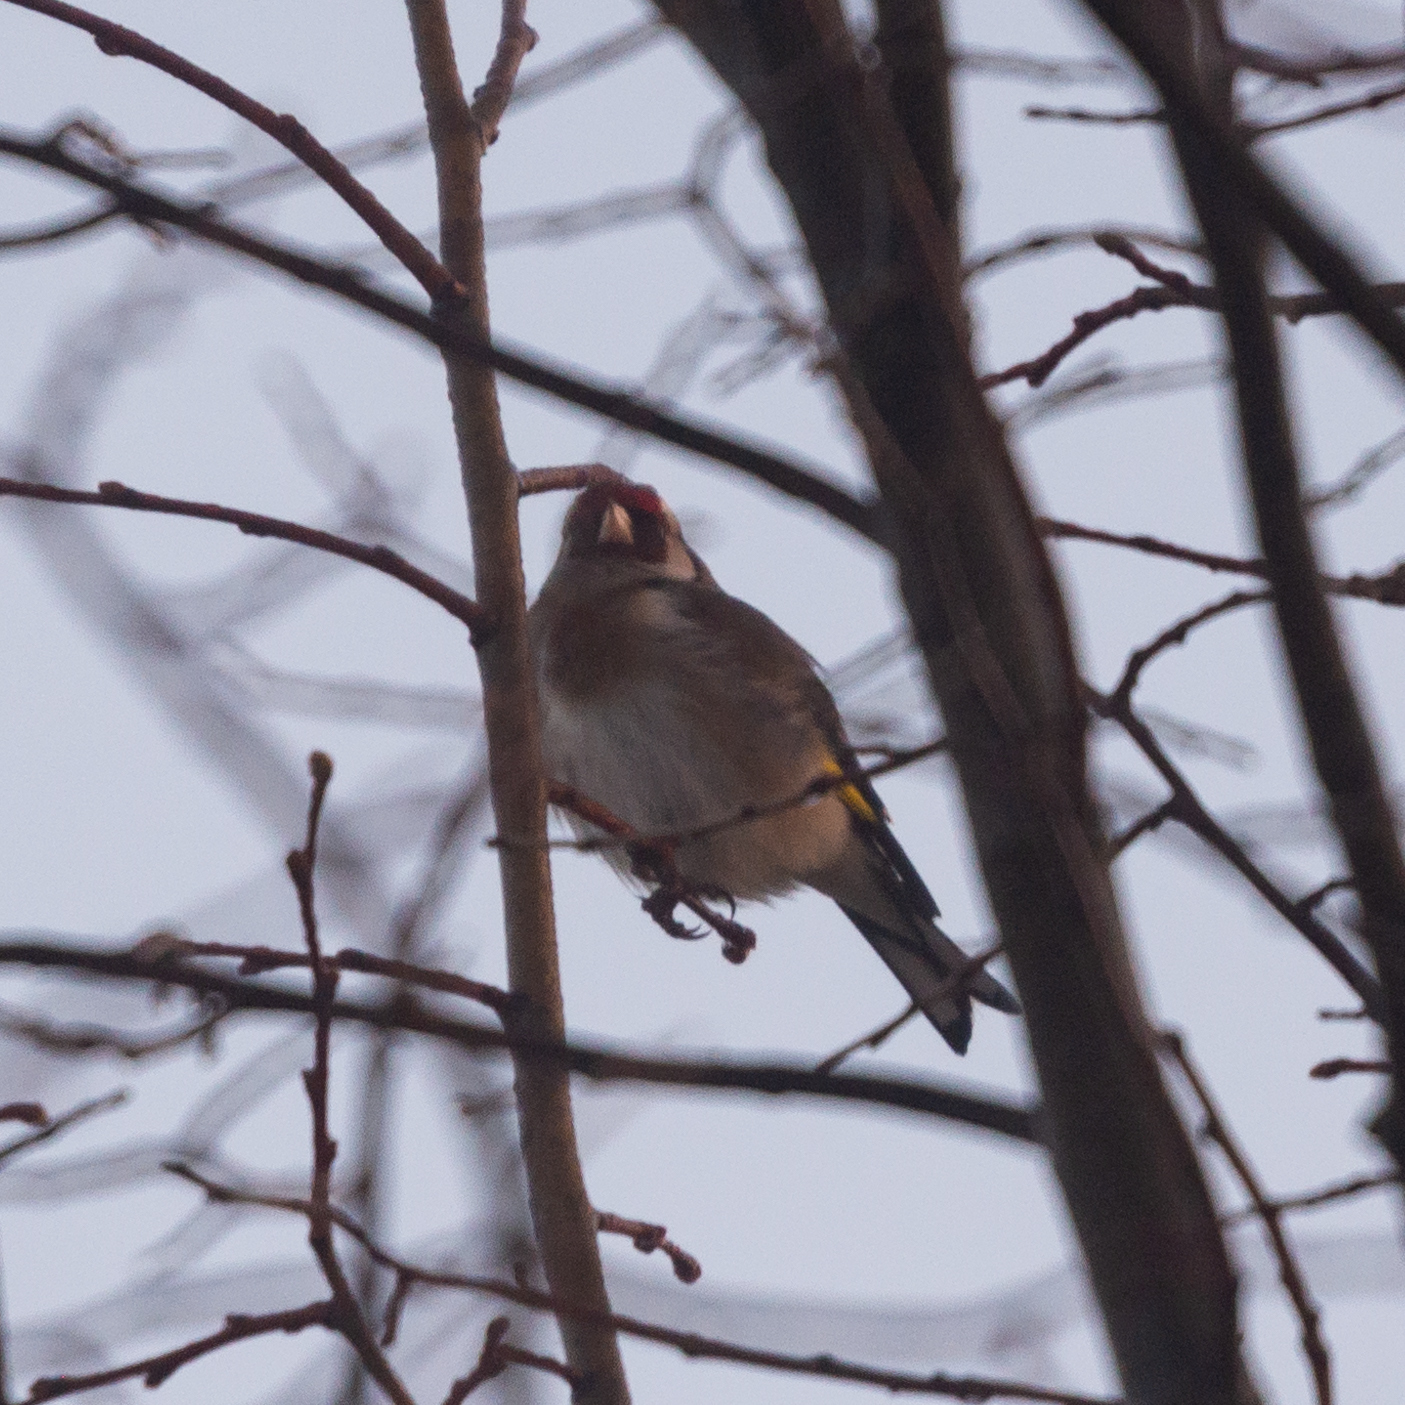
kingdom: Animalia
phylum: Chordata
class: Aves
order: Passeriformes
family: Fringillidae
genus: Carduelis
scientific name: Carduelis carduelis
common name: European goldfinch
